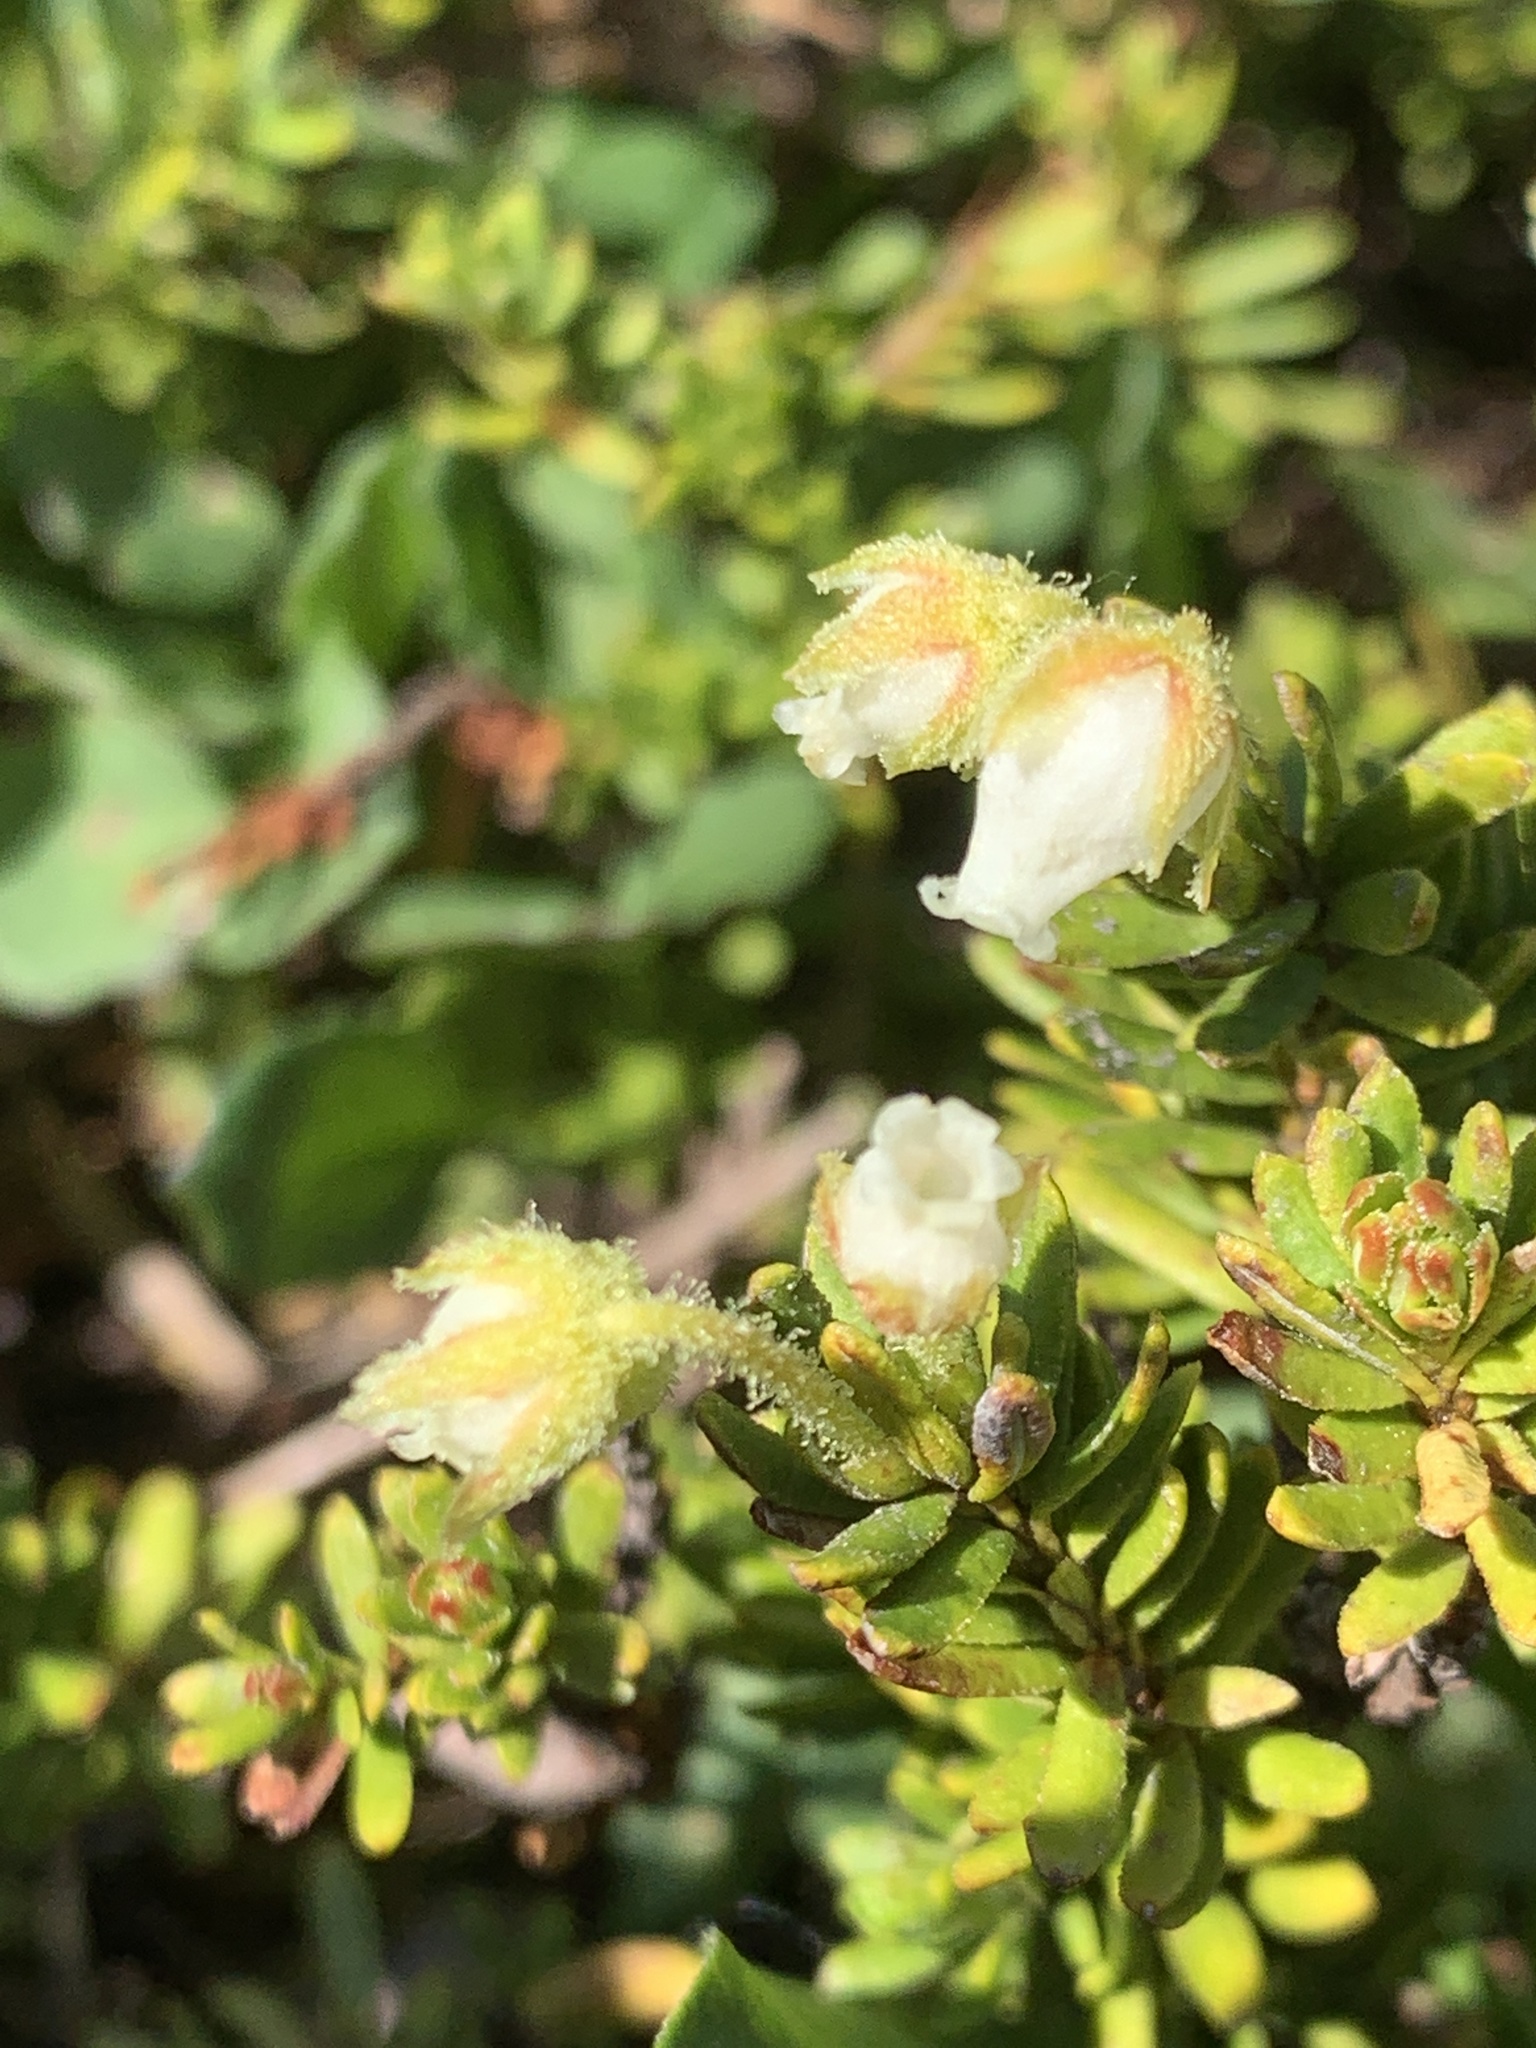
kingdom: Plantae
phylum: Tracheophyta
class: Magnoliopsida
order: Ericales
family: Ericaceae
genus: Phyllodoce
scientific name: Phyllodoce glanduliflora
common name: Cream mountain heather
